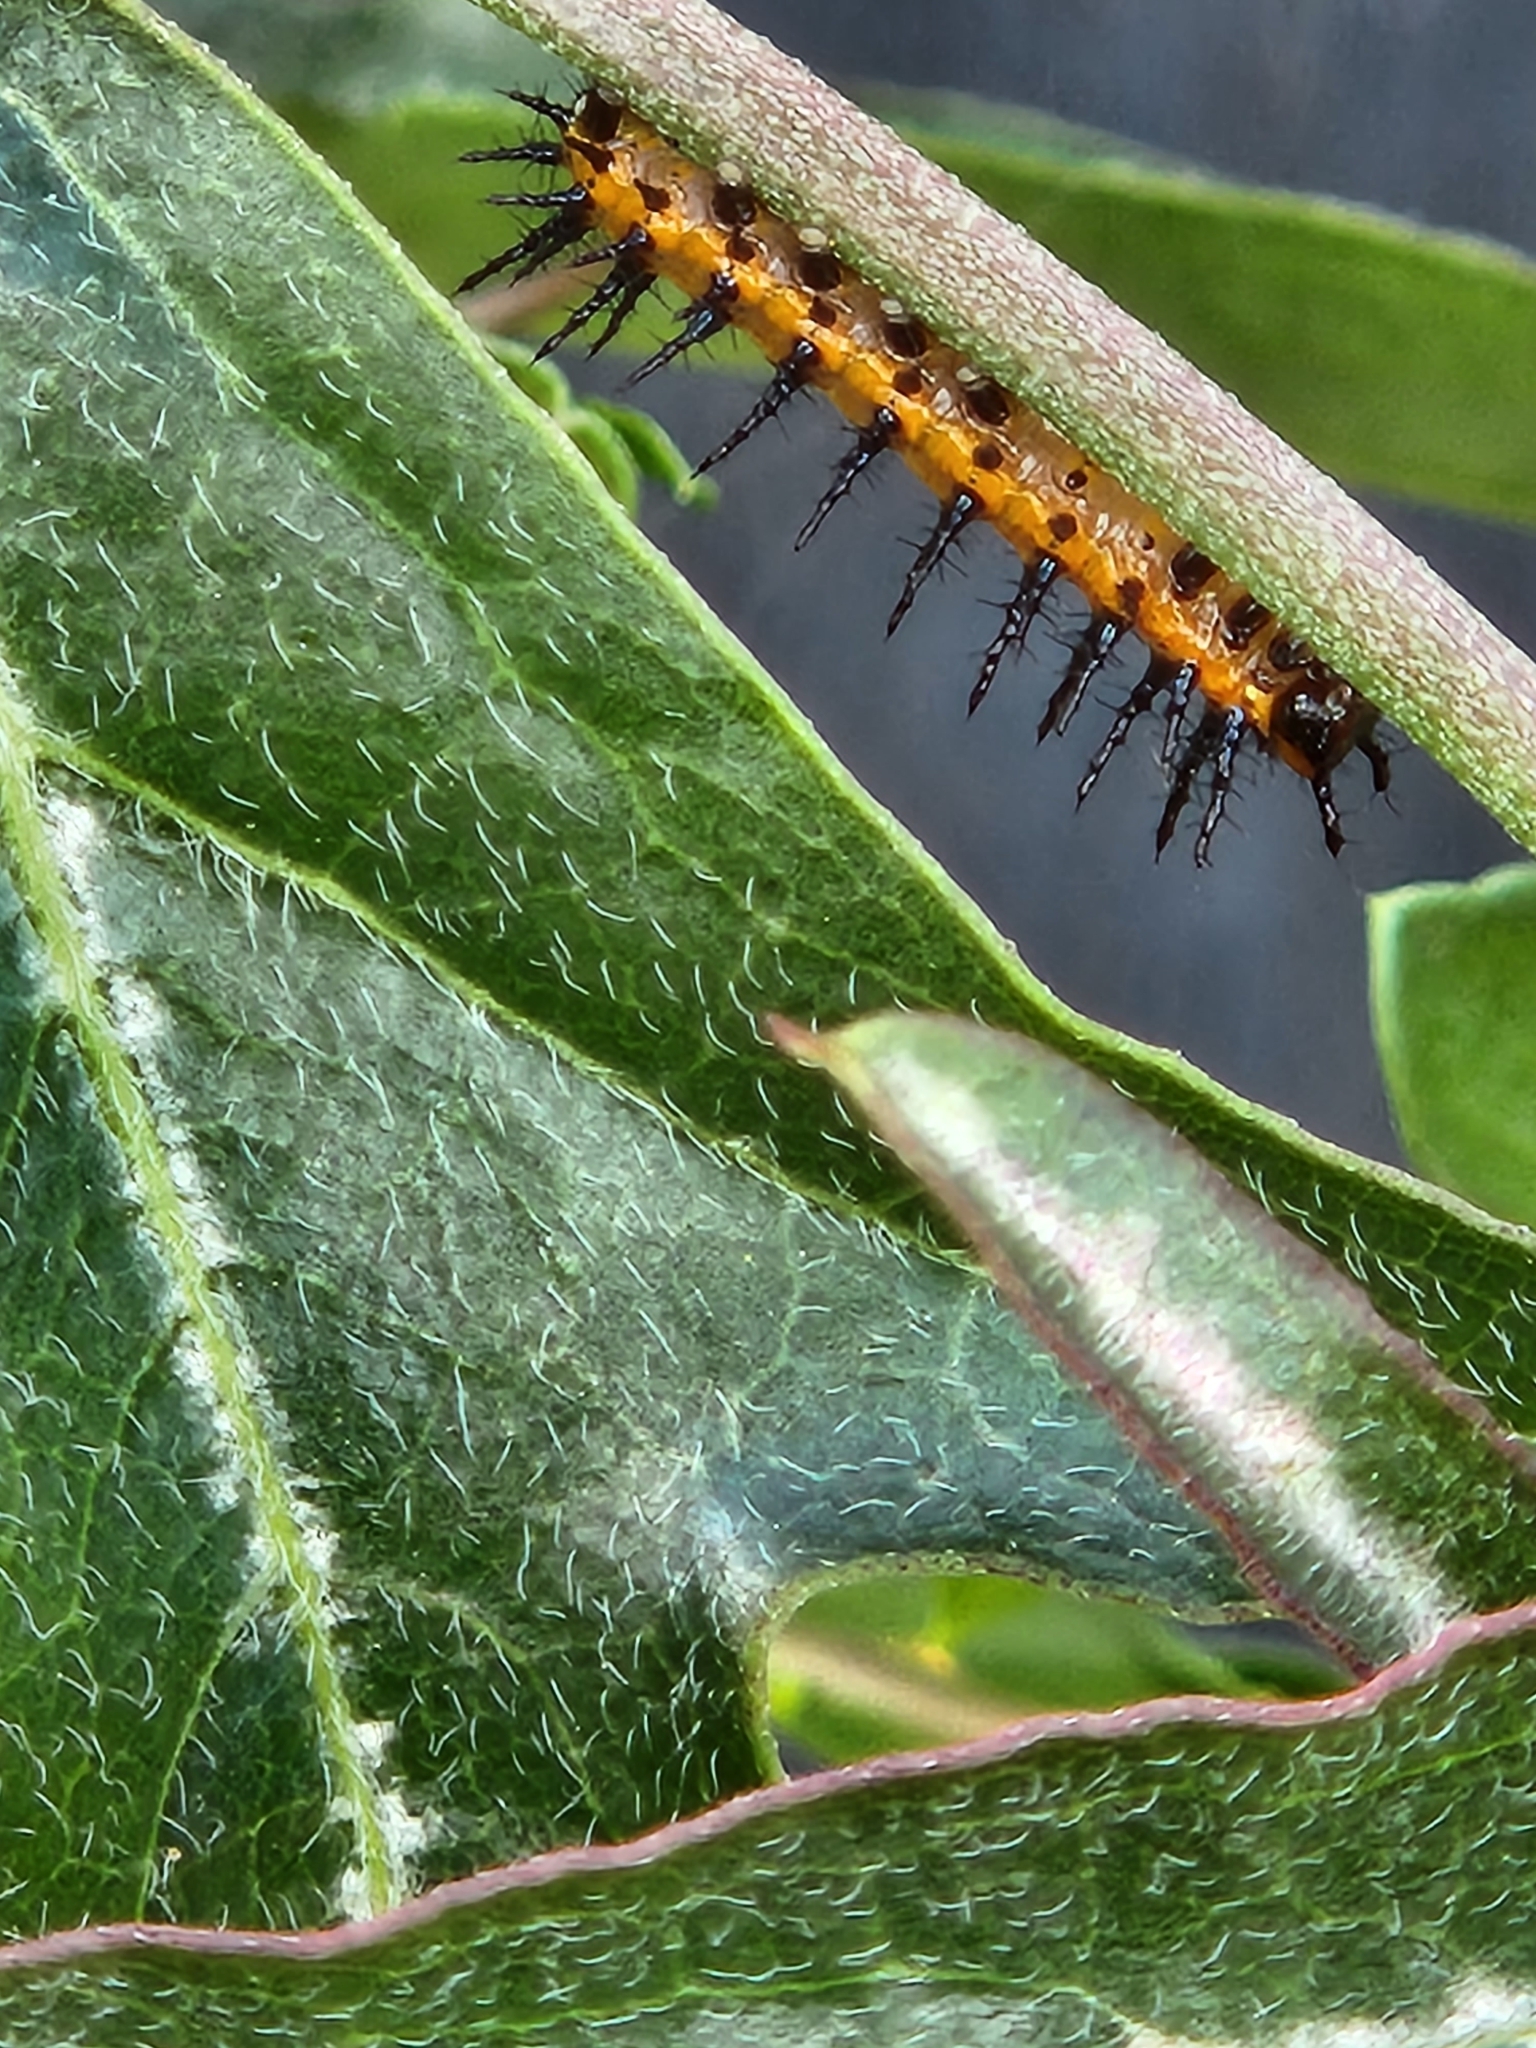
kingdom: Animalia
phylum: Arthropoda
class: Insecta
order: Lepidoptera
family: Nymphalidae
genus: Dione
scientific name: Dione vanillae
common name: Gulf fritillary
